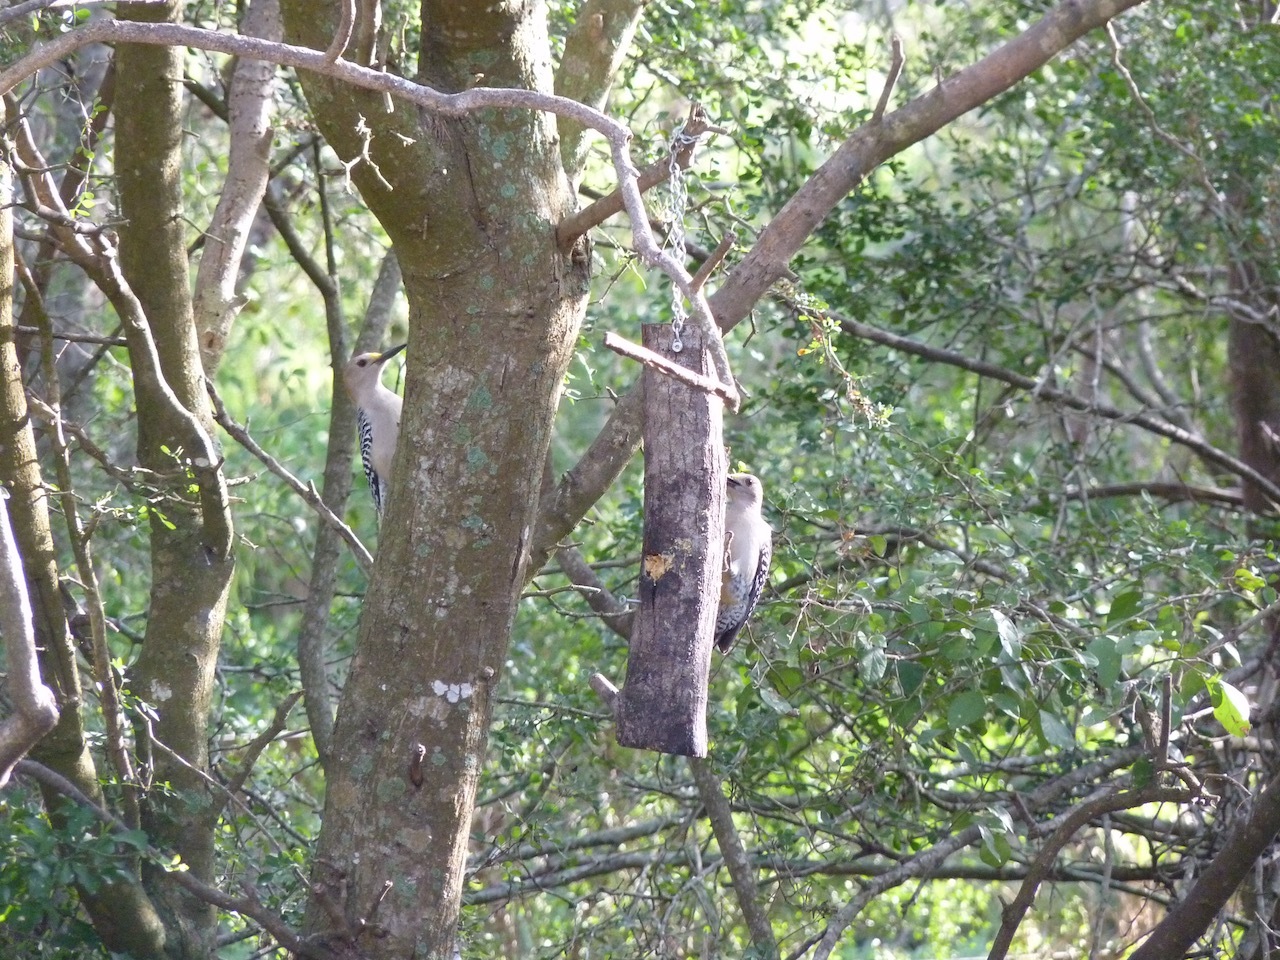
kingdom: Animalia
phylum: Chordata
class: Aves
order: Piciformes
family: Picidae
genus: Melanerpes
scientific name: Melanerpes aurifrons
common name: Golden-fronted woodpecker
